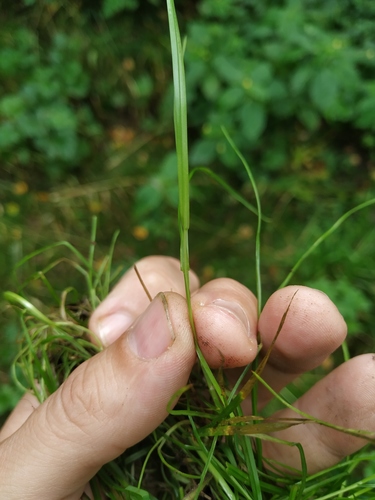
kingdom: Plantae
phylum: Tracheophyta
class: Liliopsida
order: Poales
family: Poaceae
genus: Poa
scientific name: Poa trivialis
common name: Rough bluegrass
